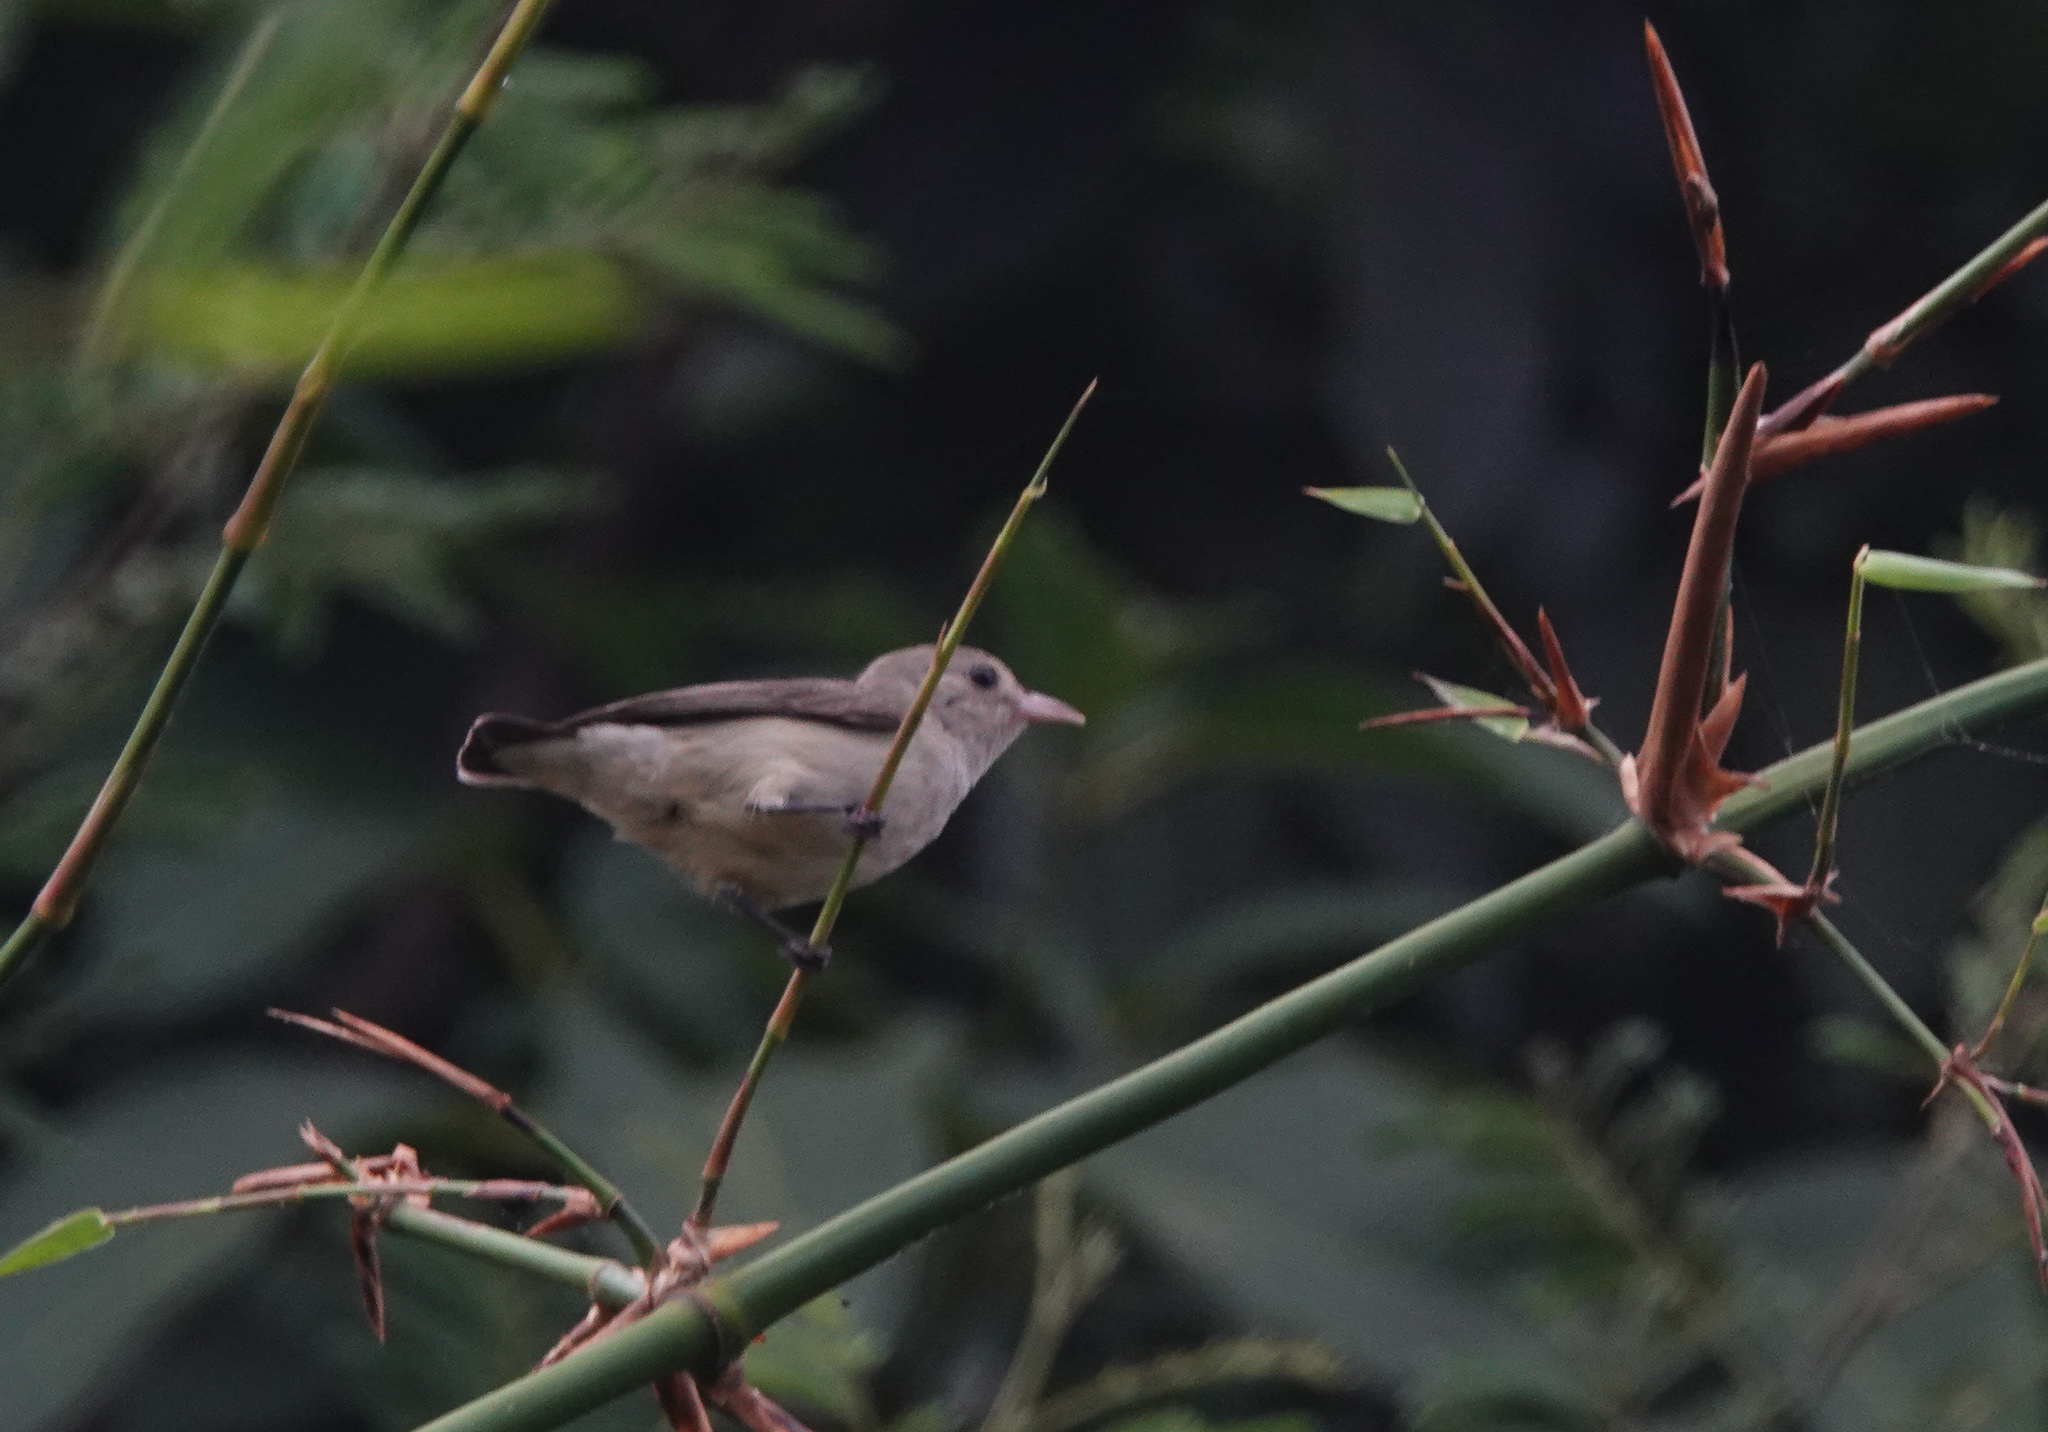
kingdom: Animalia
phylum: Chordata
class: Aves
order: Passeriformes
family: Dicaeidae
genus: Dicaeum
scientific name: Dicaeum erythrorhynchos
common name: Pale-billed flowerpecker
